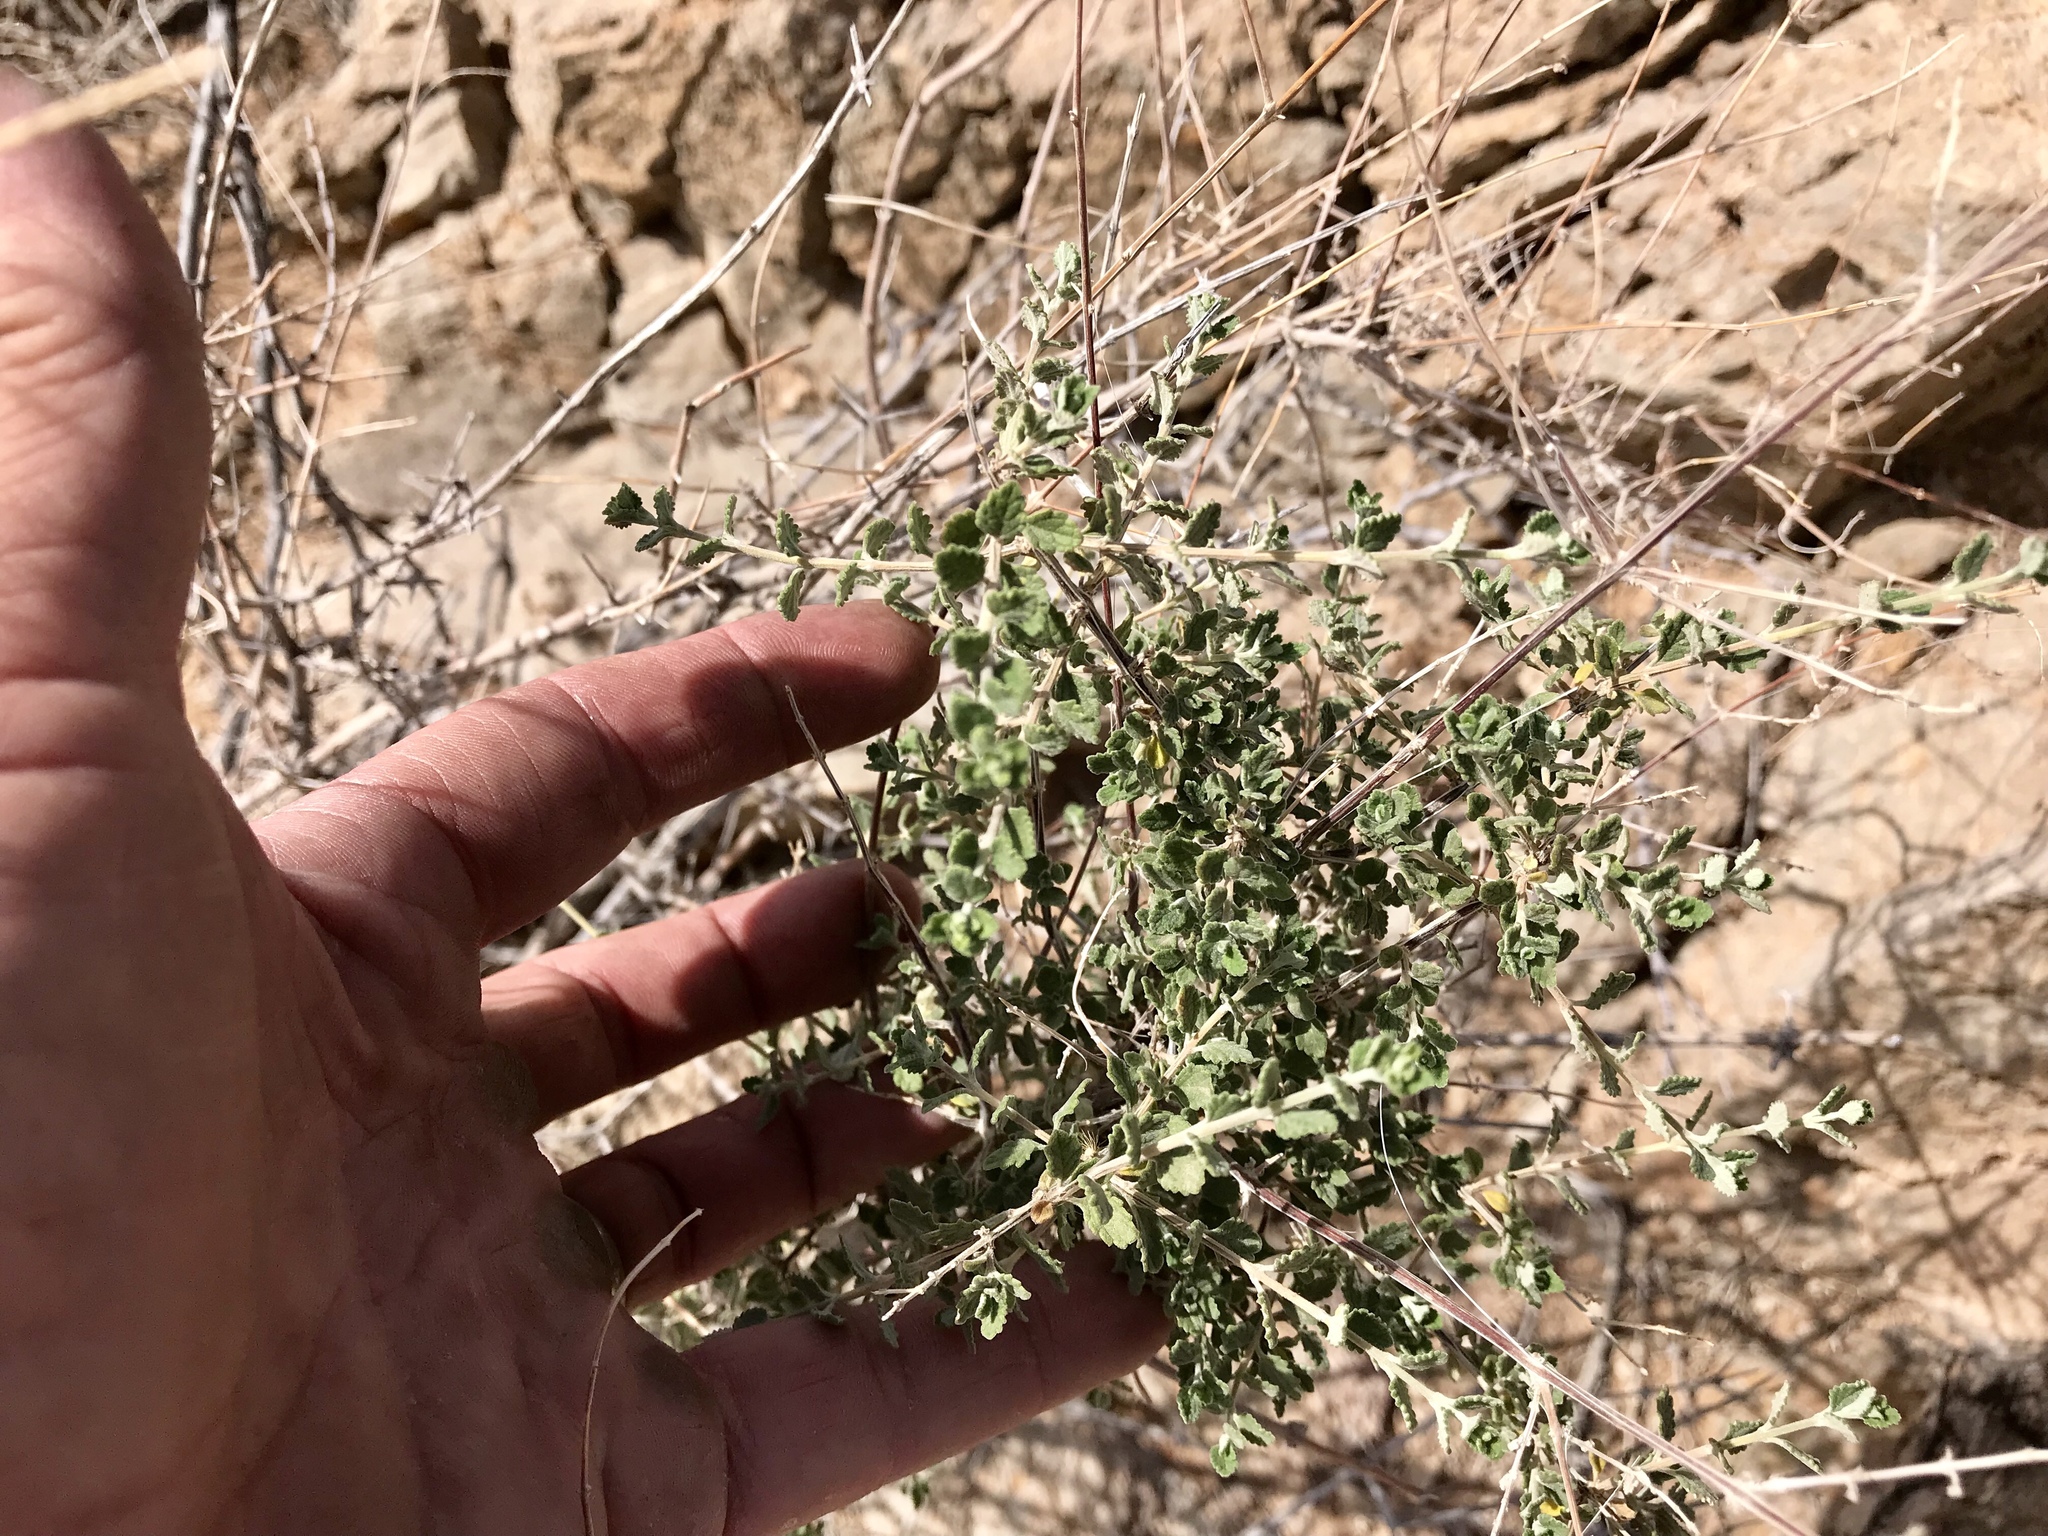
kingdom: Plantae
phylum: Tracheophyta
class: Magnoliopsida
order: Lamiales
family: Verbenaceae
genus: Aloysia
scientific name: Aloysia wrightii
